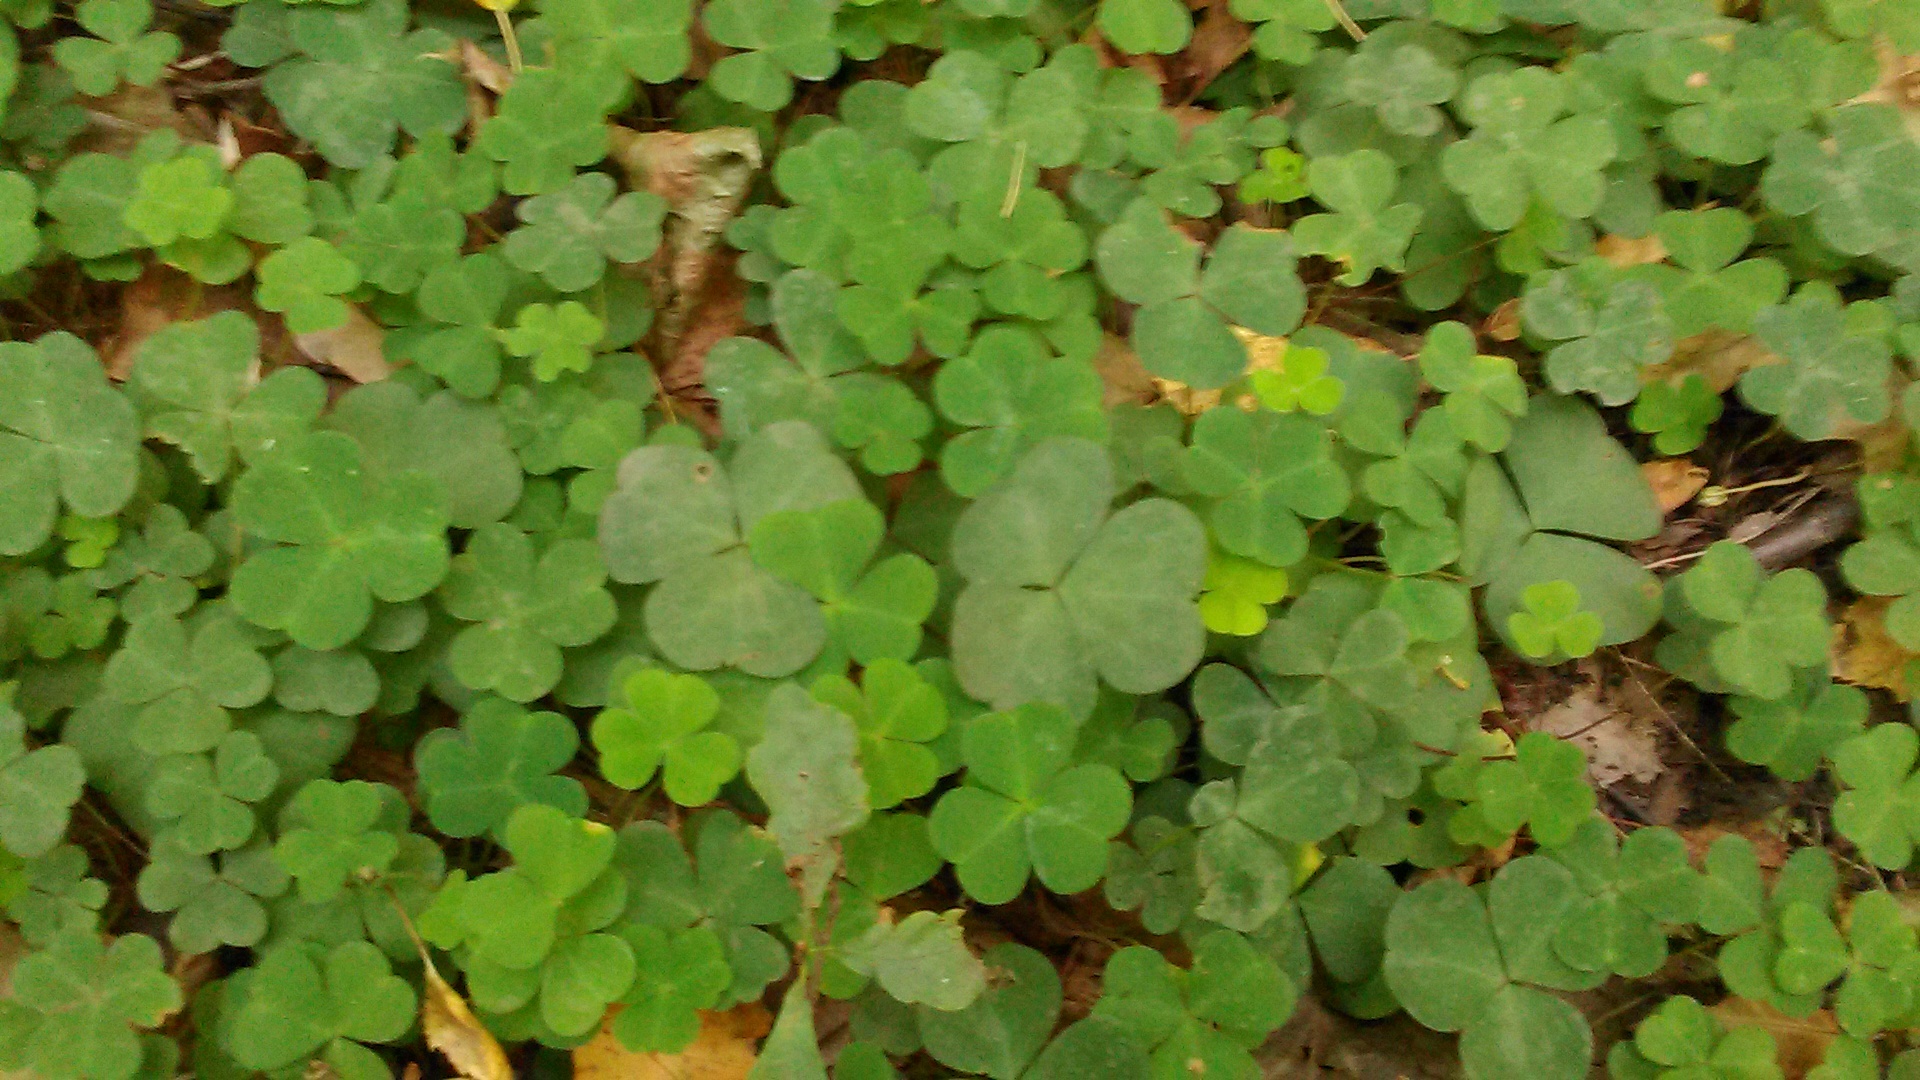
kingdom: Plantae
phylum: Tracheophyta
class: Magnoliopsida
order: Oxalidales
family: Oxalidaceae
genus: Oxalis
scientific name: Oxalis acetosella
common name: Wood-sorrel
